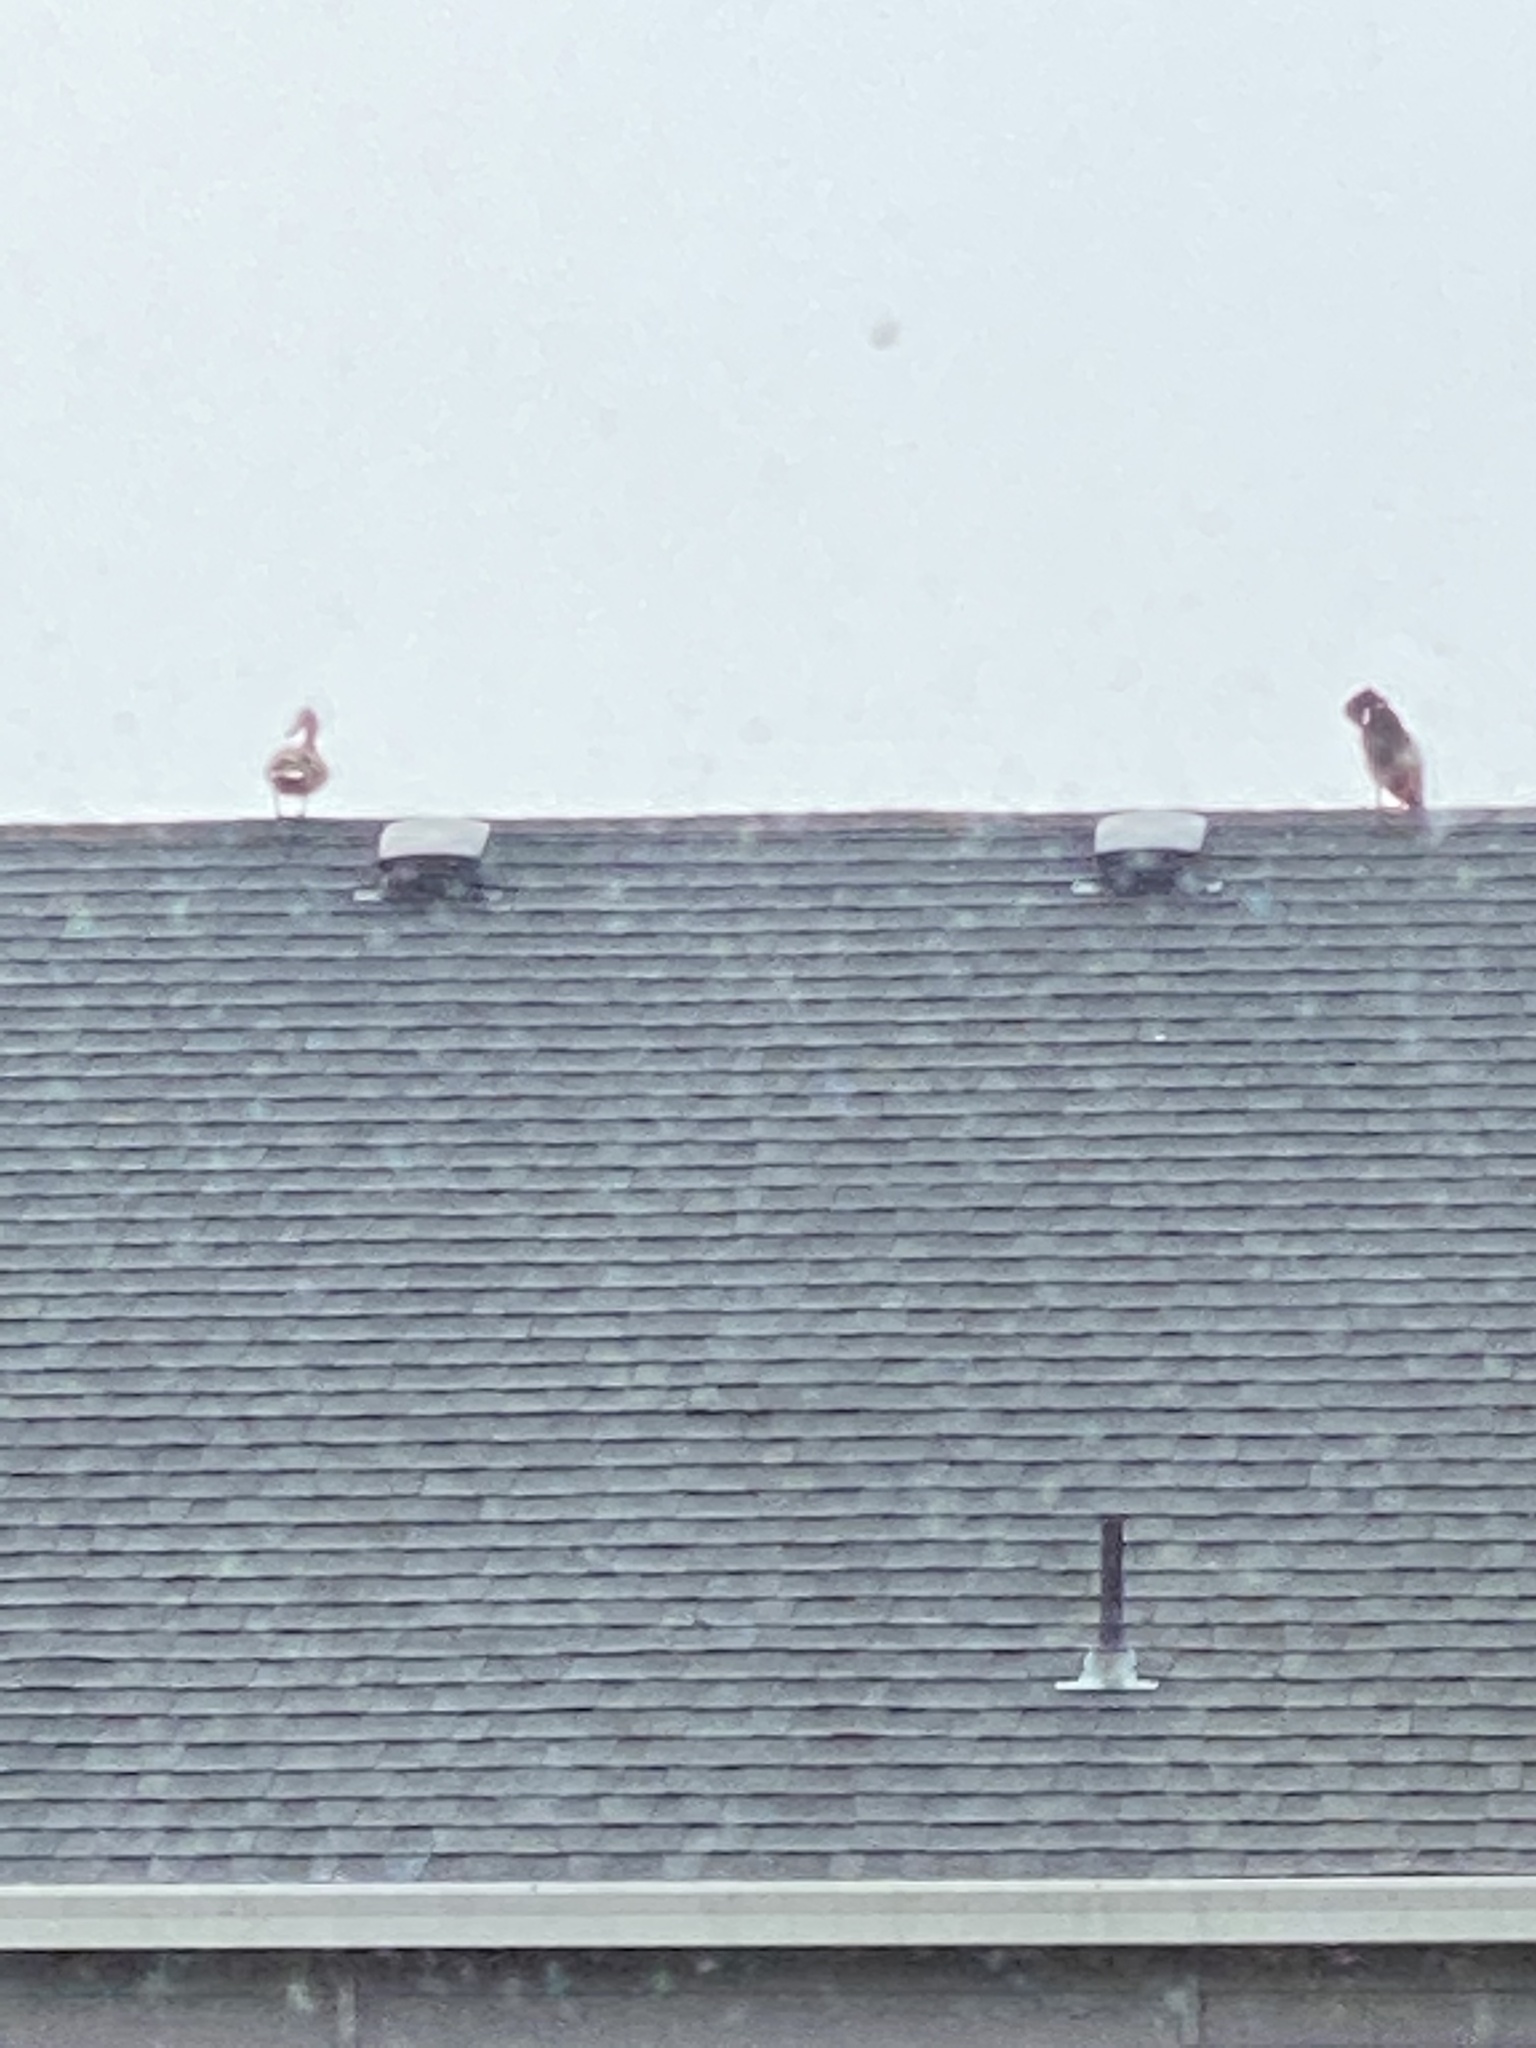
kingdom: Animalia
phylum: Chordata
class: Aves
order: Anseriformes
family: Anatidae
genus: Anas
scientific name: Anas platyrhynchos
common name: Mallard
